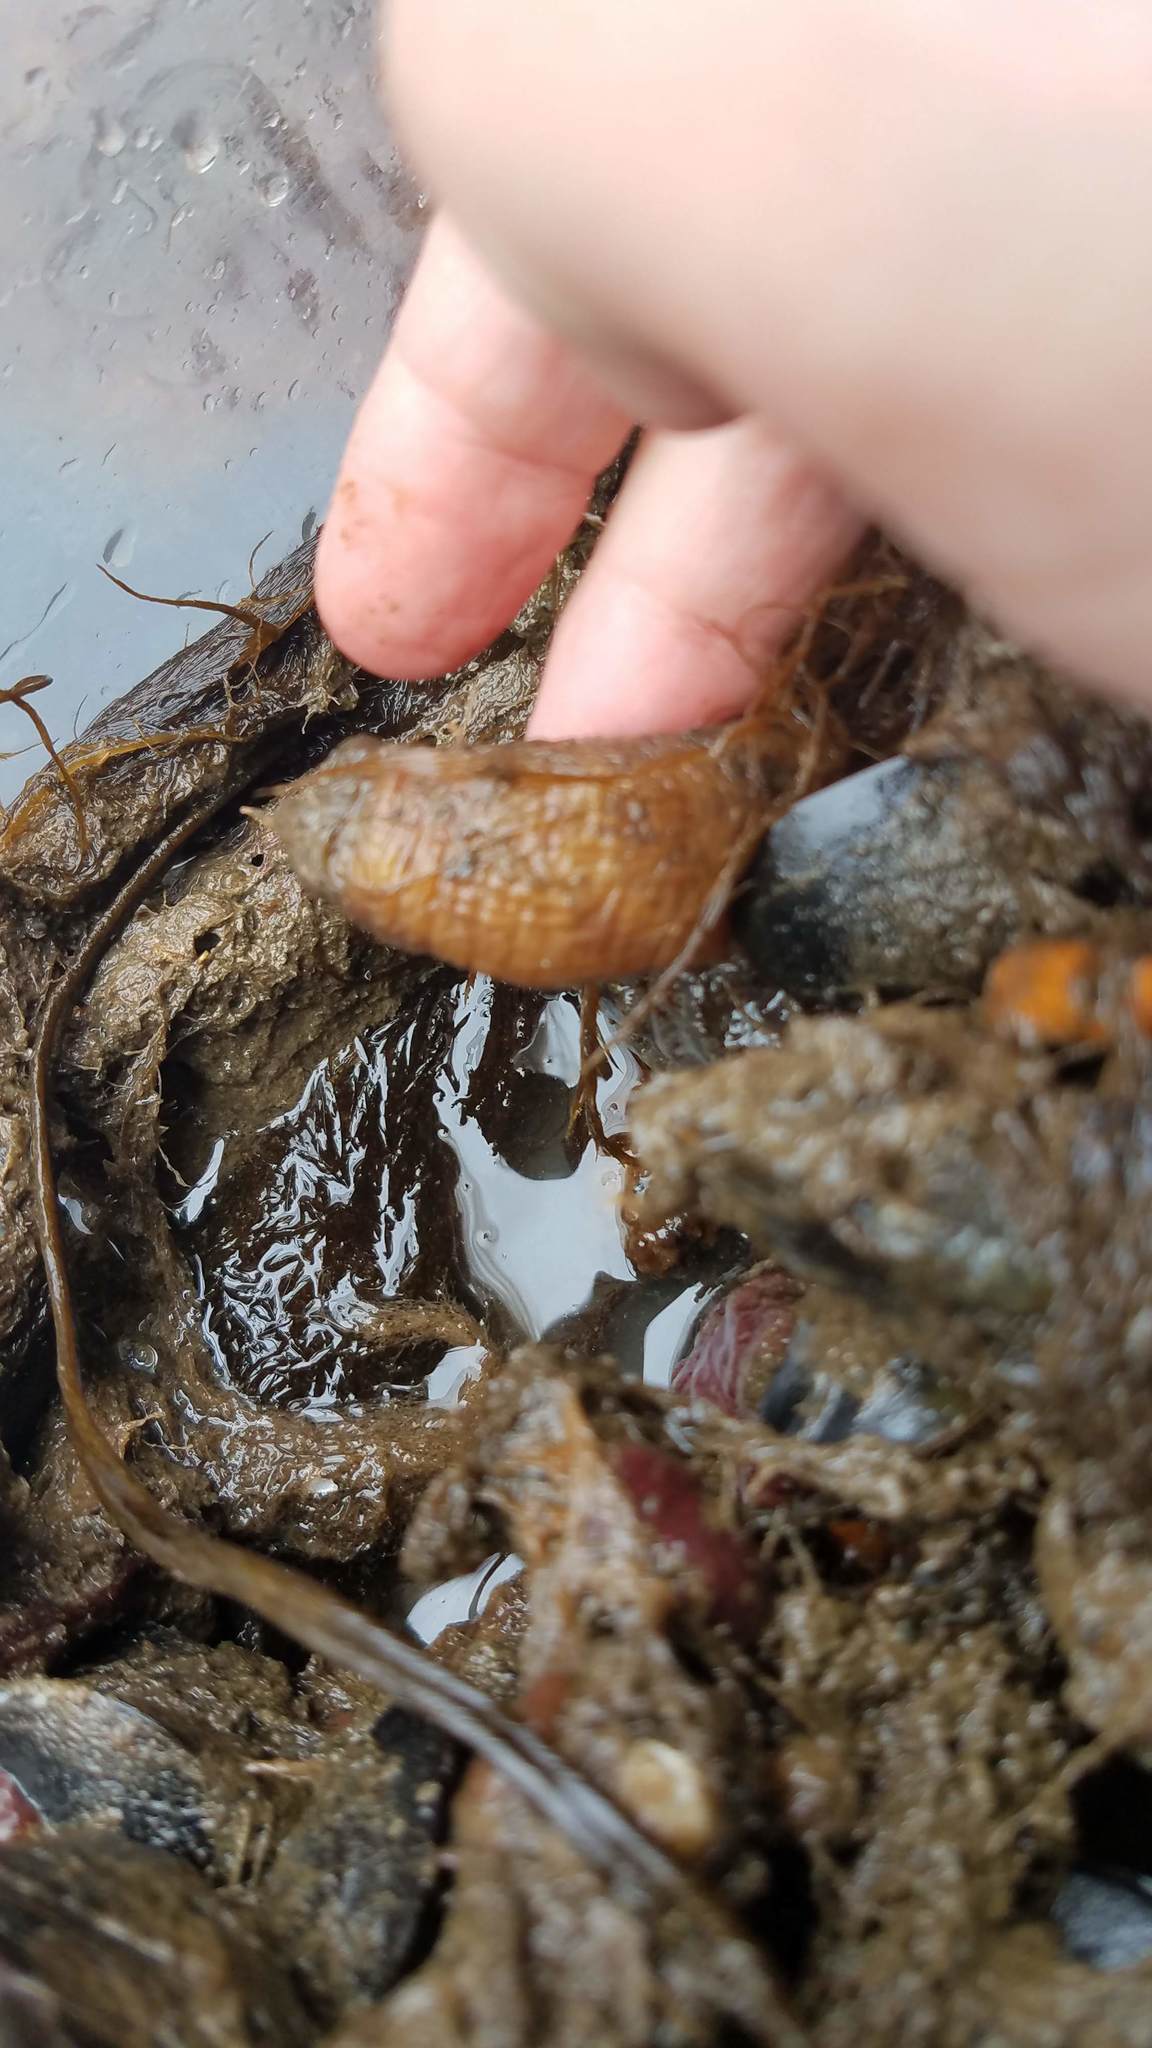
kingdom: Animalia
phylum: Chordata
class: Ascidiacea
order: Stolidobranchia
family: Styelidae
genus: Styela
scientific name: Styela clava
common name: Leathery sea squirt
